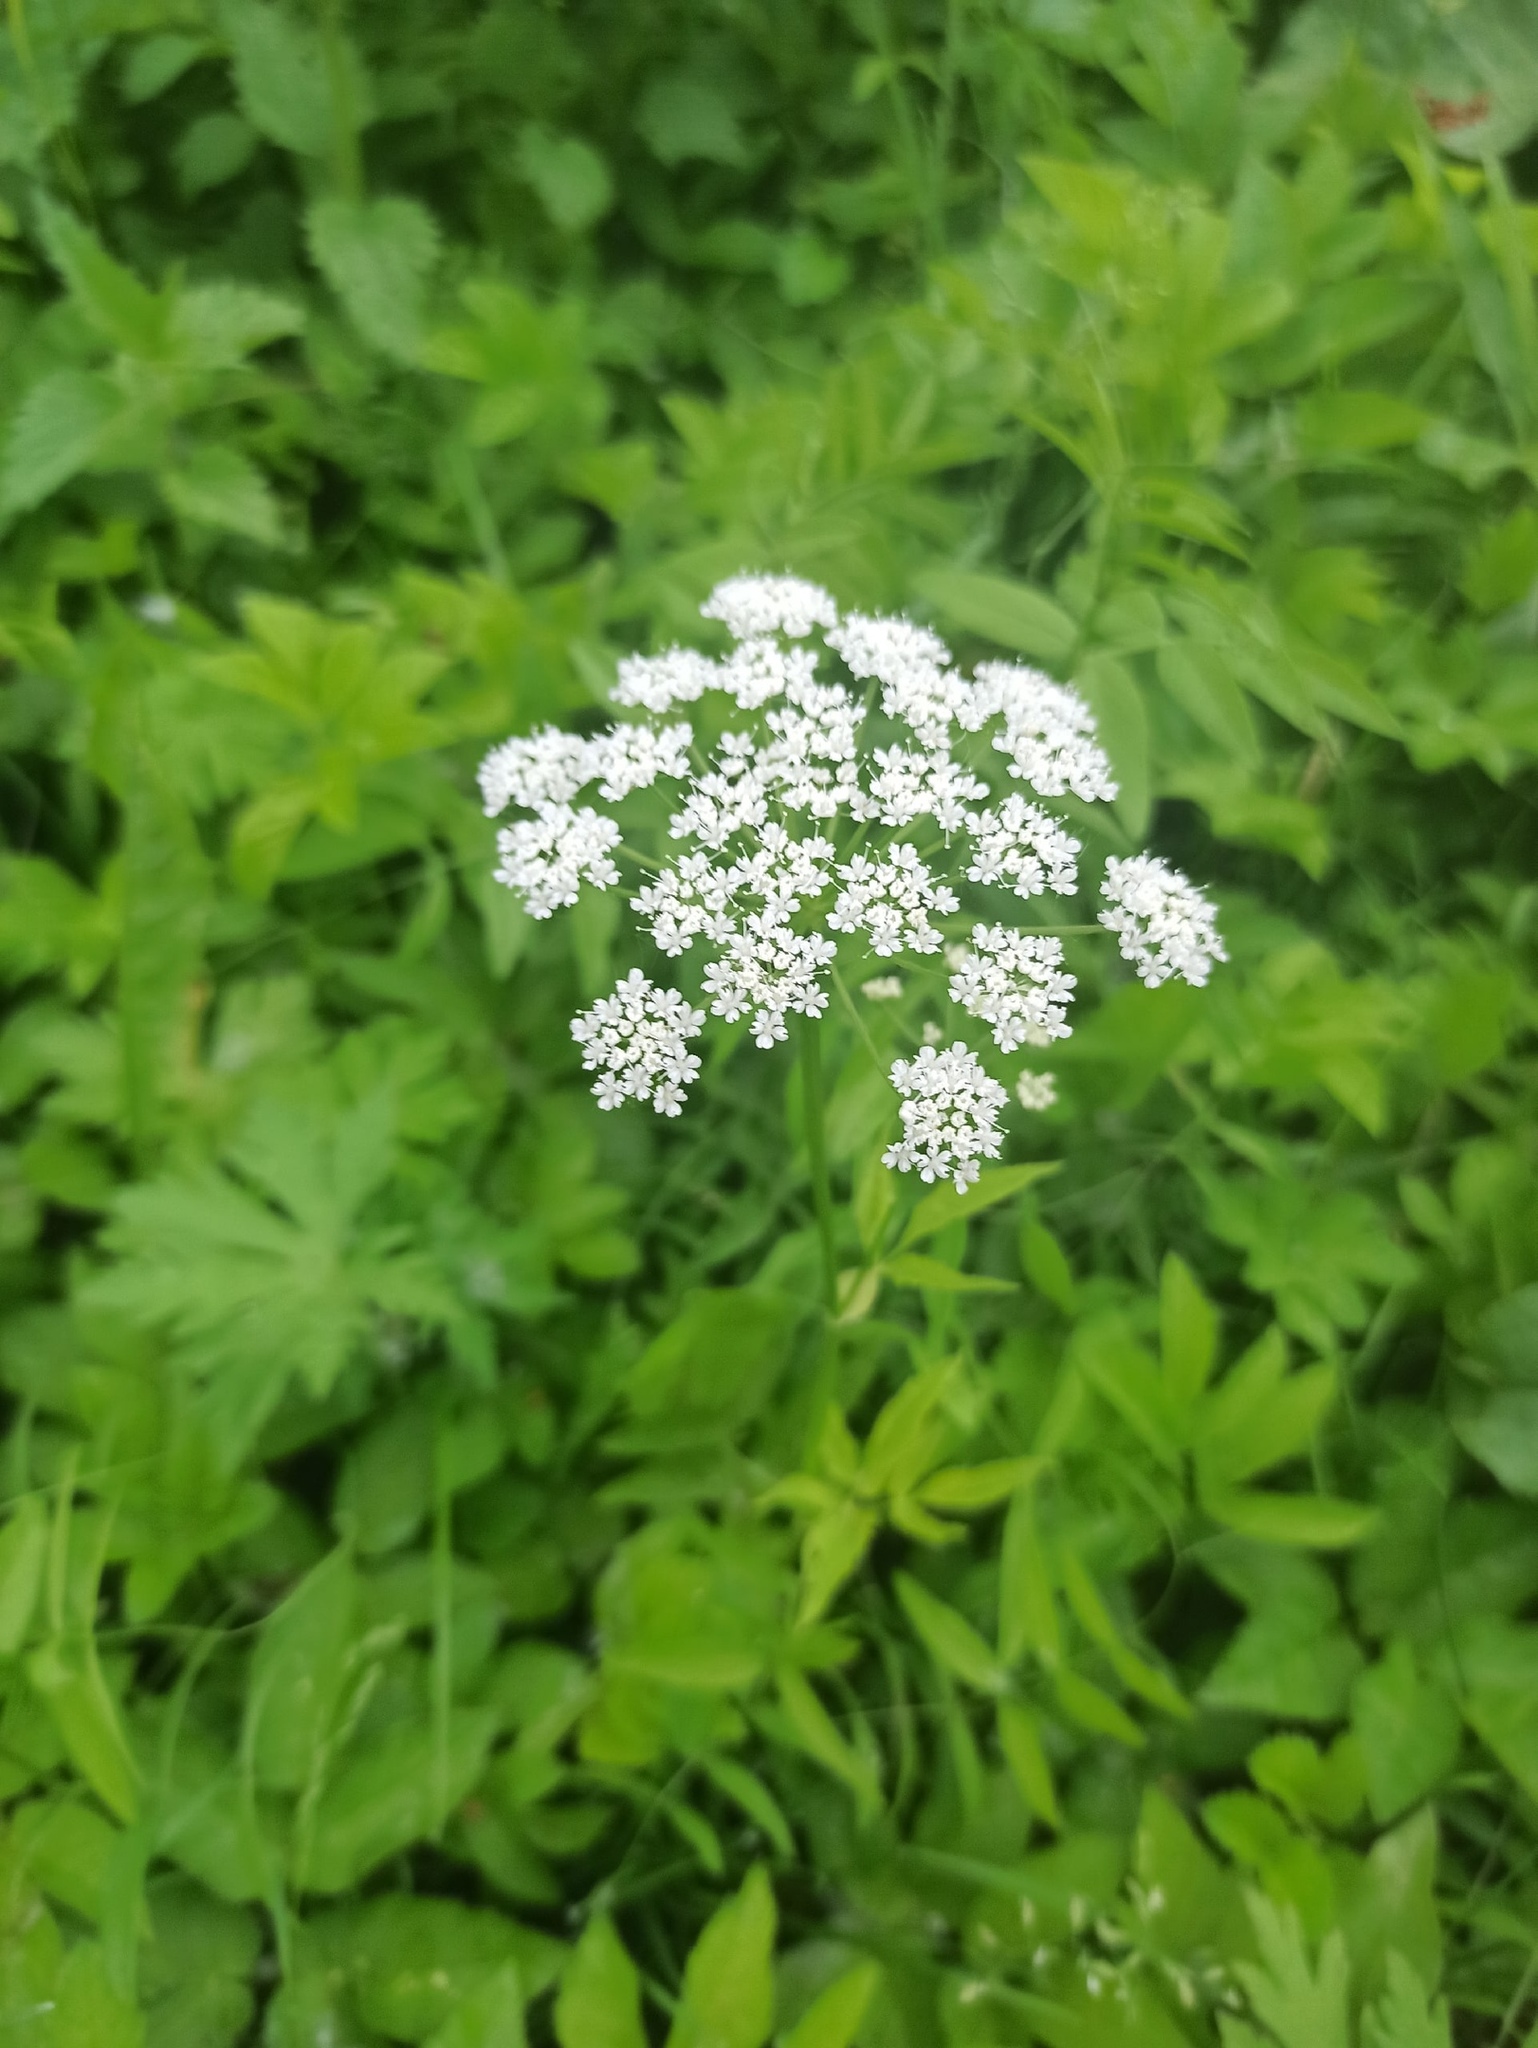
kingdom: Plantae
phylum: Tracheophyta
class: Magnoliopsida
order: Apiales
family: Apiaceae
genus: Aegopodium
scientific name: Aegopodium podagraria
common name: Ground-elder
